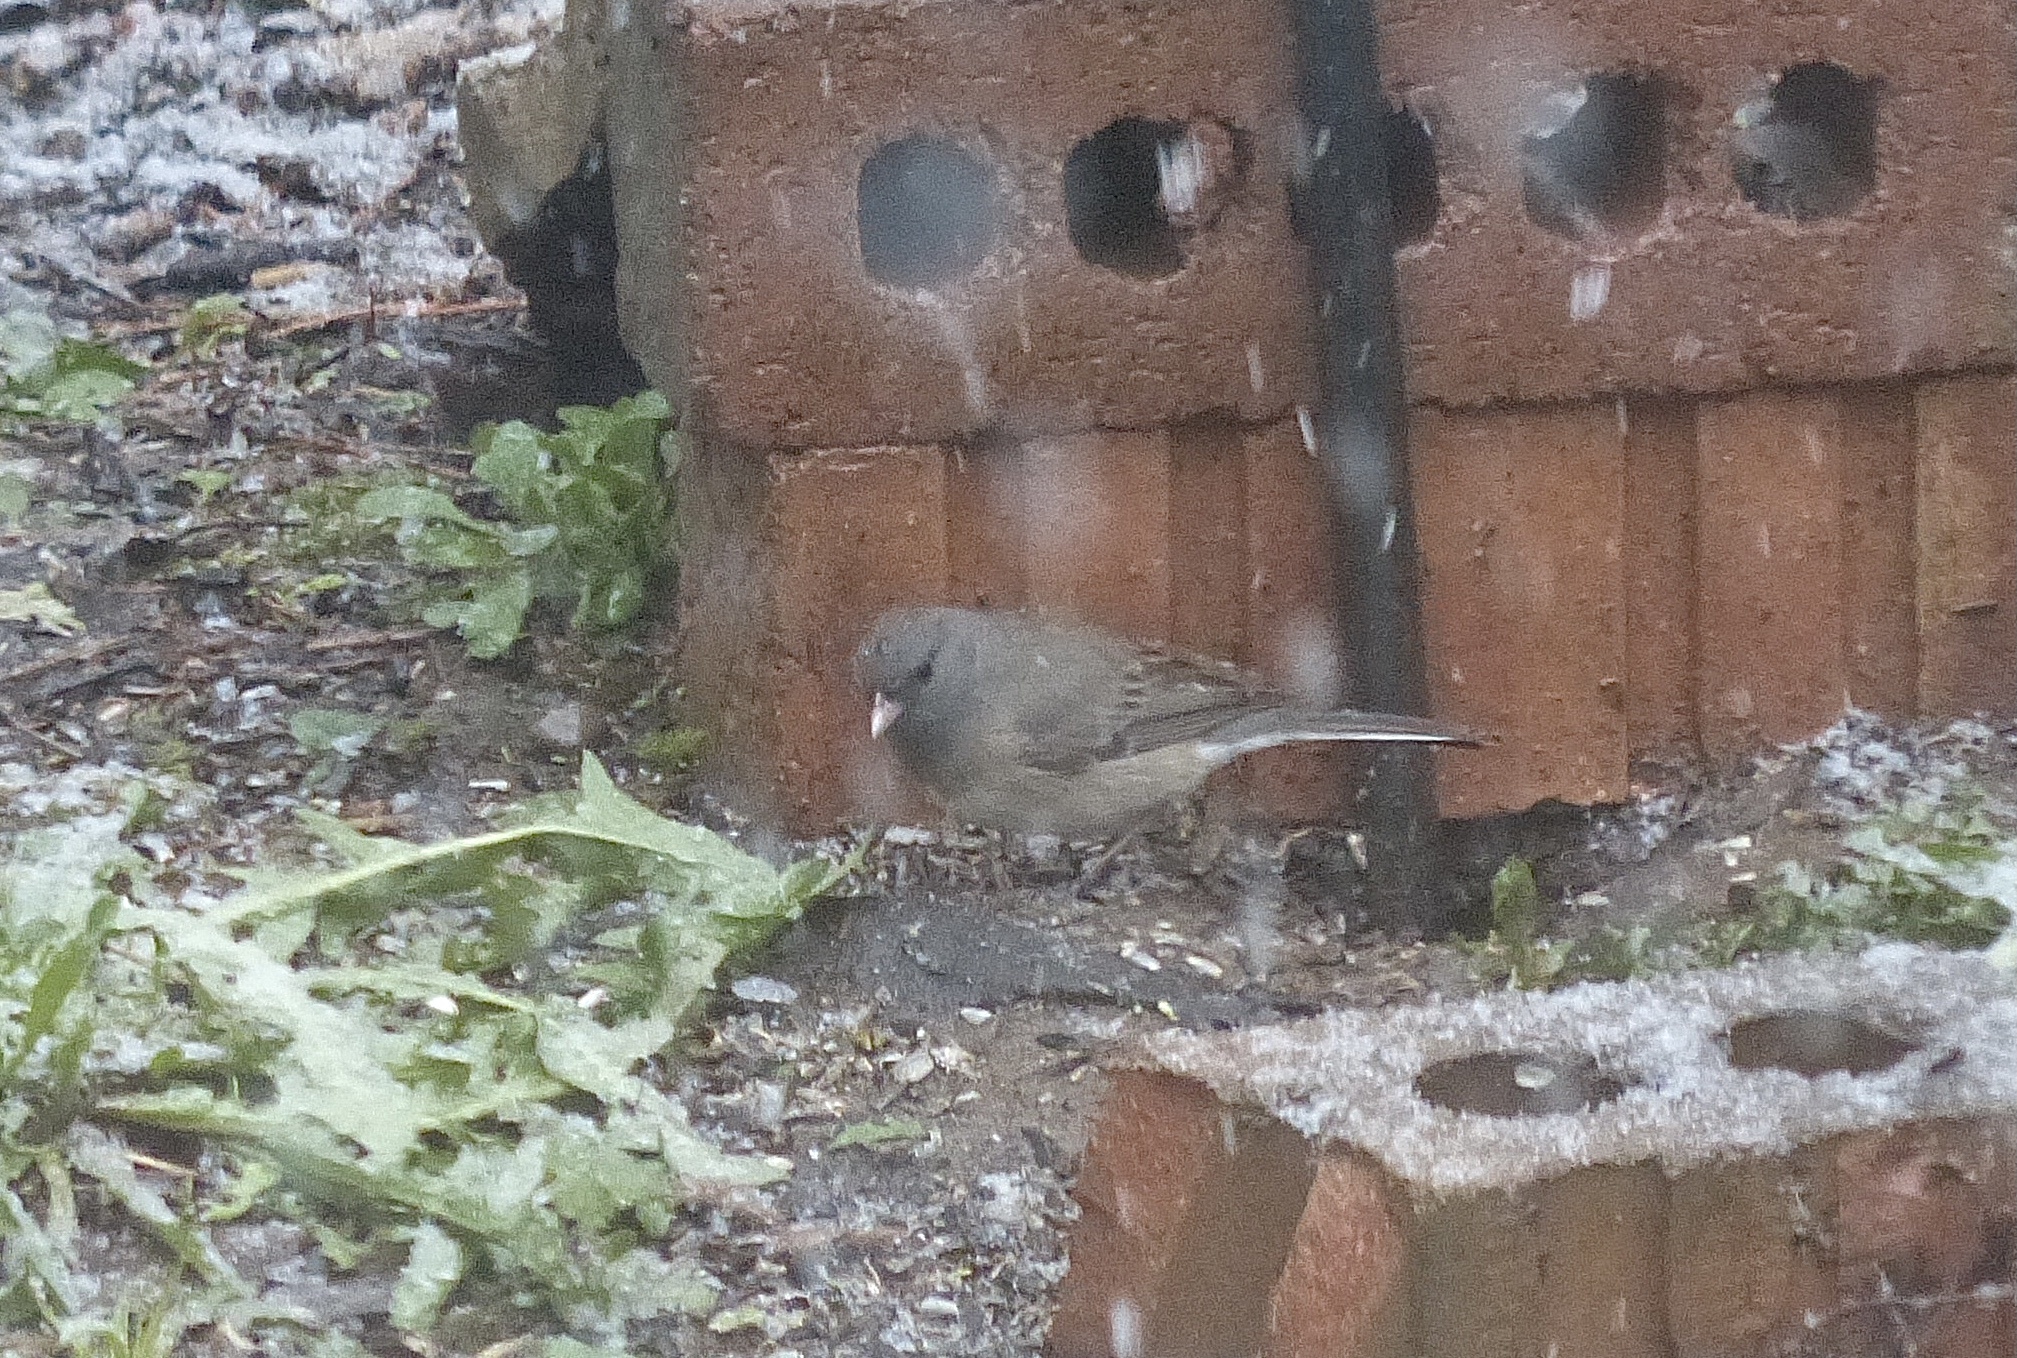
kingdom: Animalia
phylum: Chordata
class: Aves
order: Passeriformes
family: Passerellidae
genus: Junco
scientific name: Junco hyemalis
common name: Dark-eyed junco
